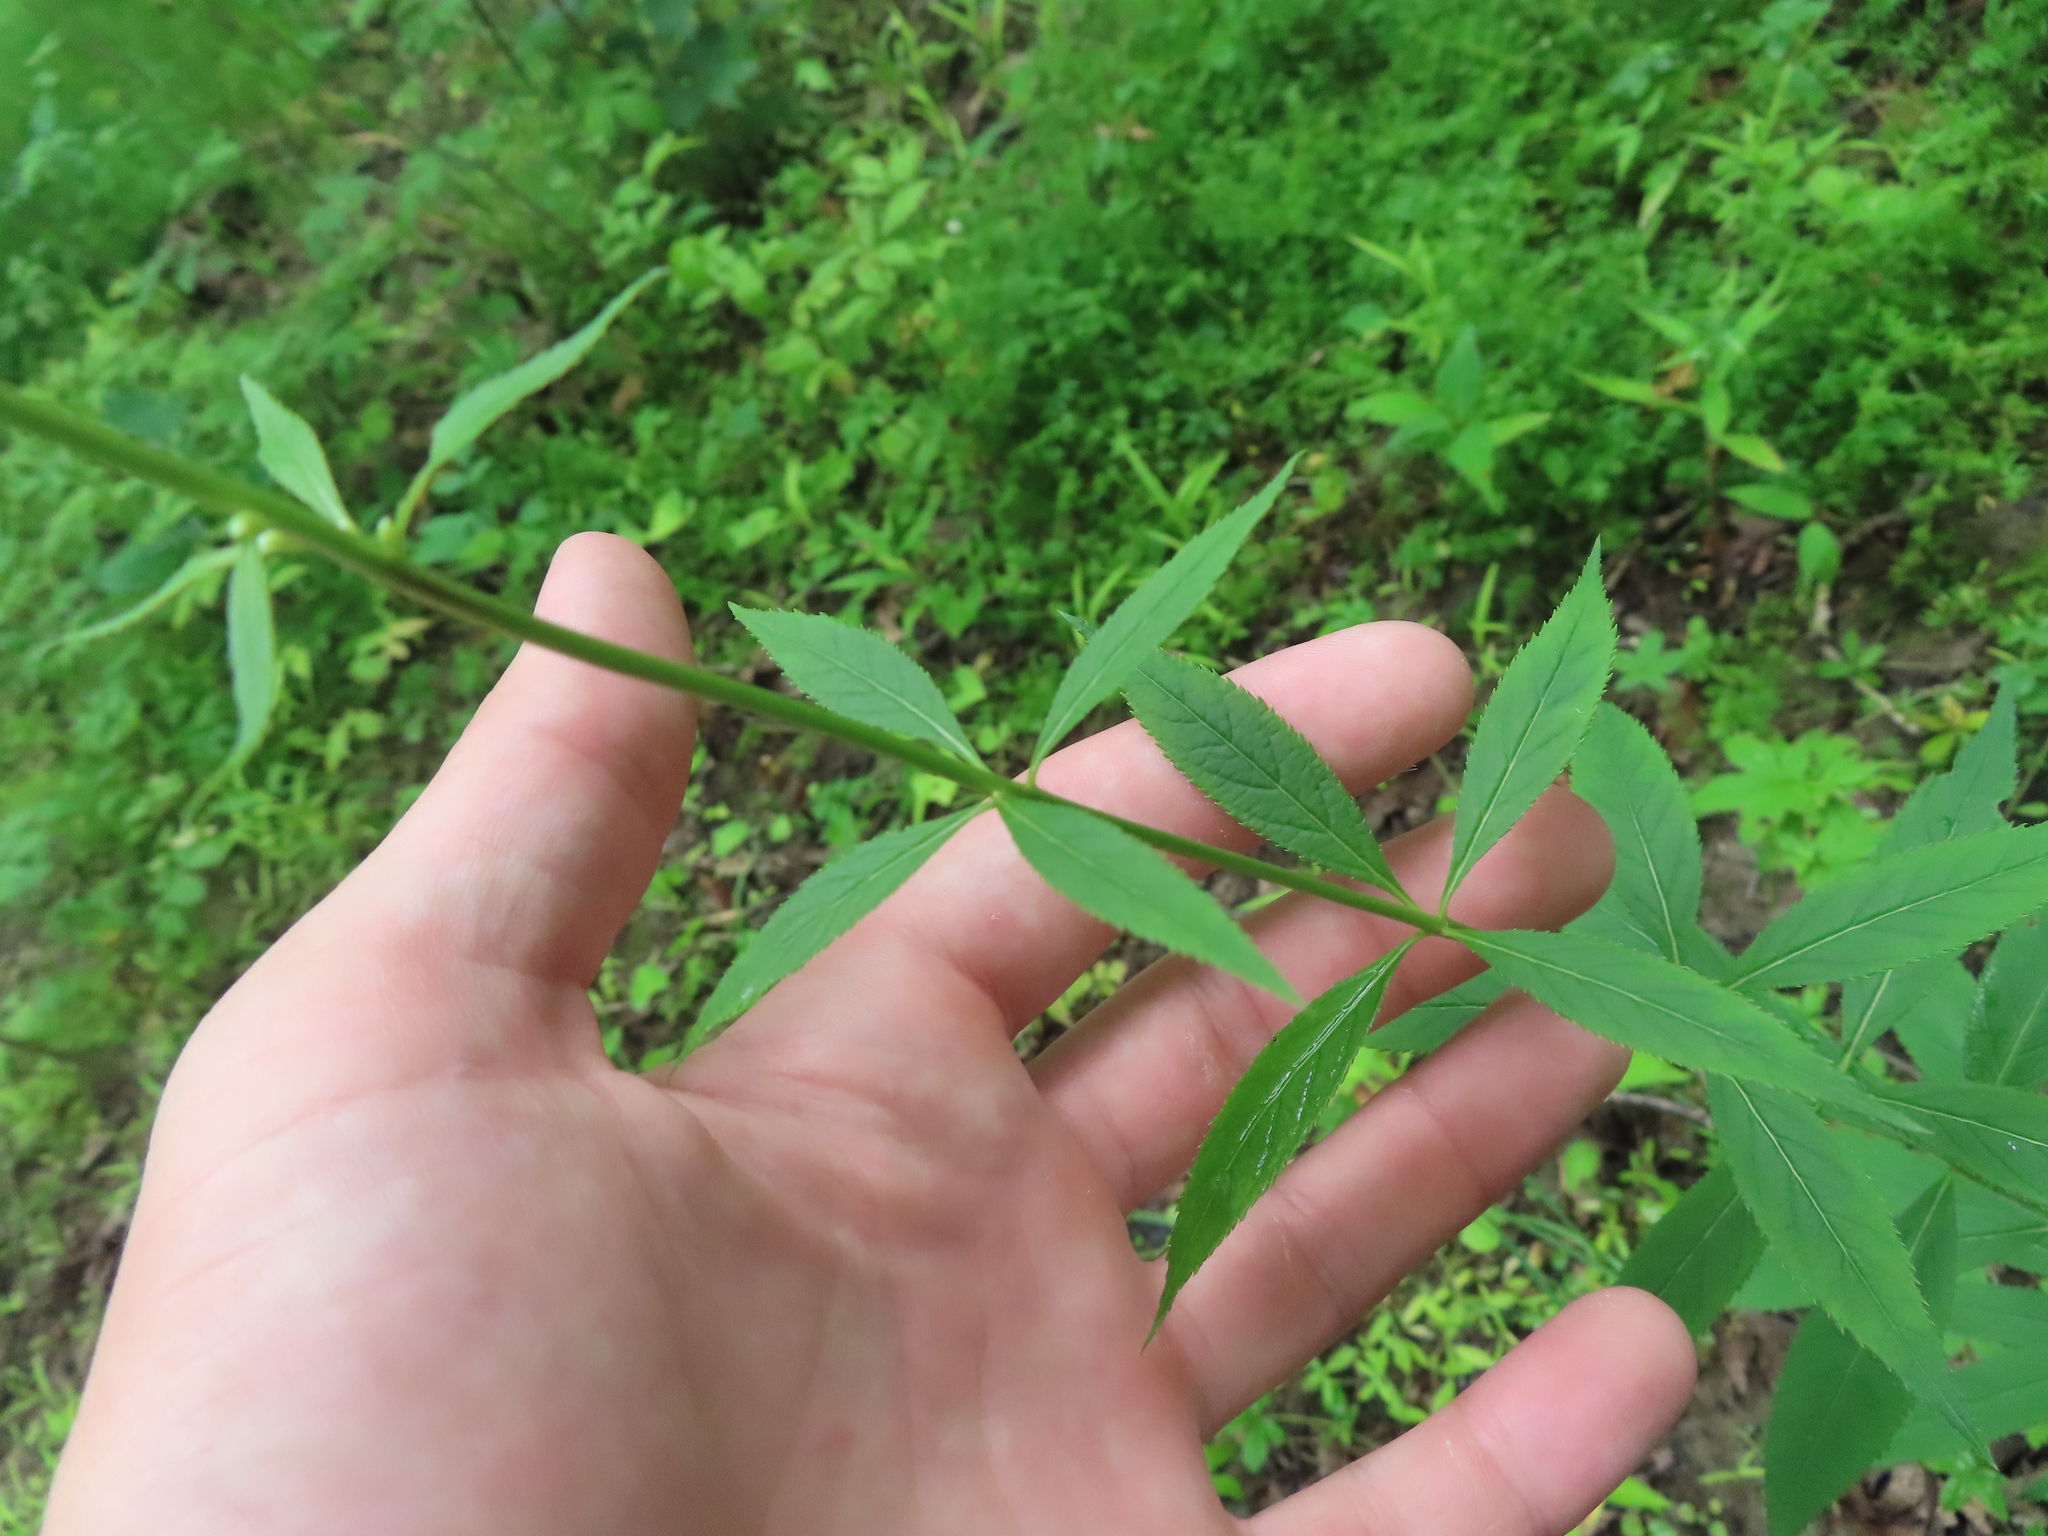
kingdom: Plantae
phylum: Tracheophyta
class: Magnoliopsida
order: Lamiales
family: Plantaginaceae
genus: Veronicastrum
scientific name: Veronicastrum virginicum
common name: Blackroot
